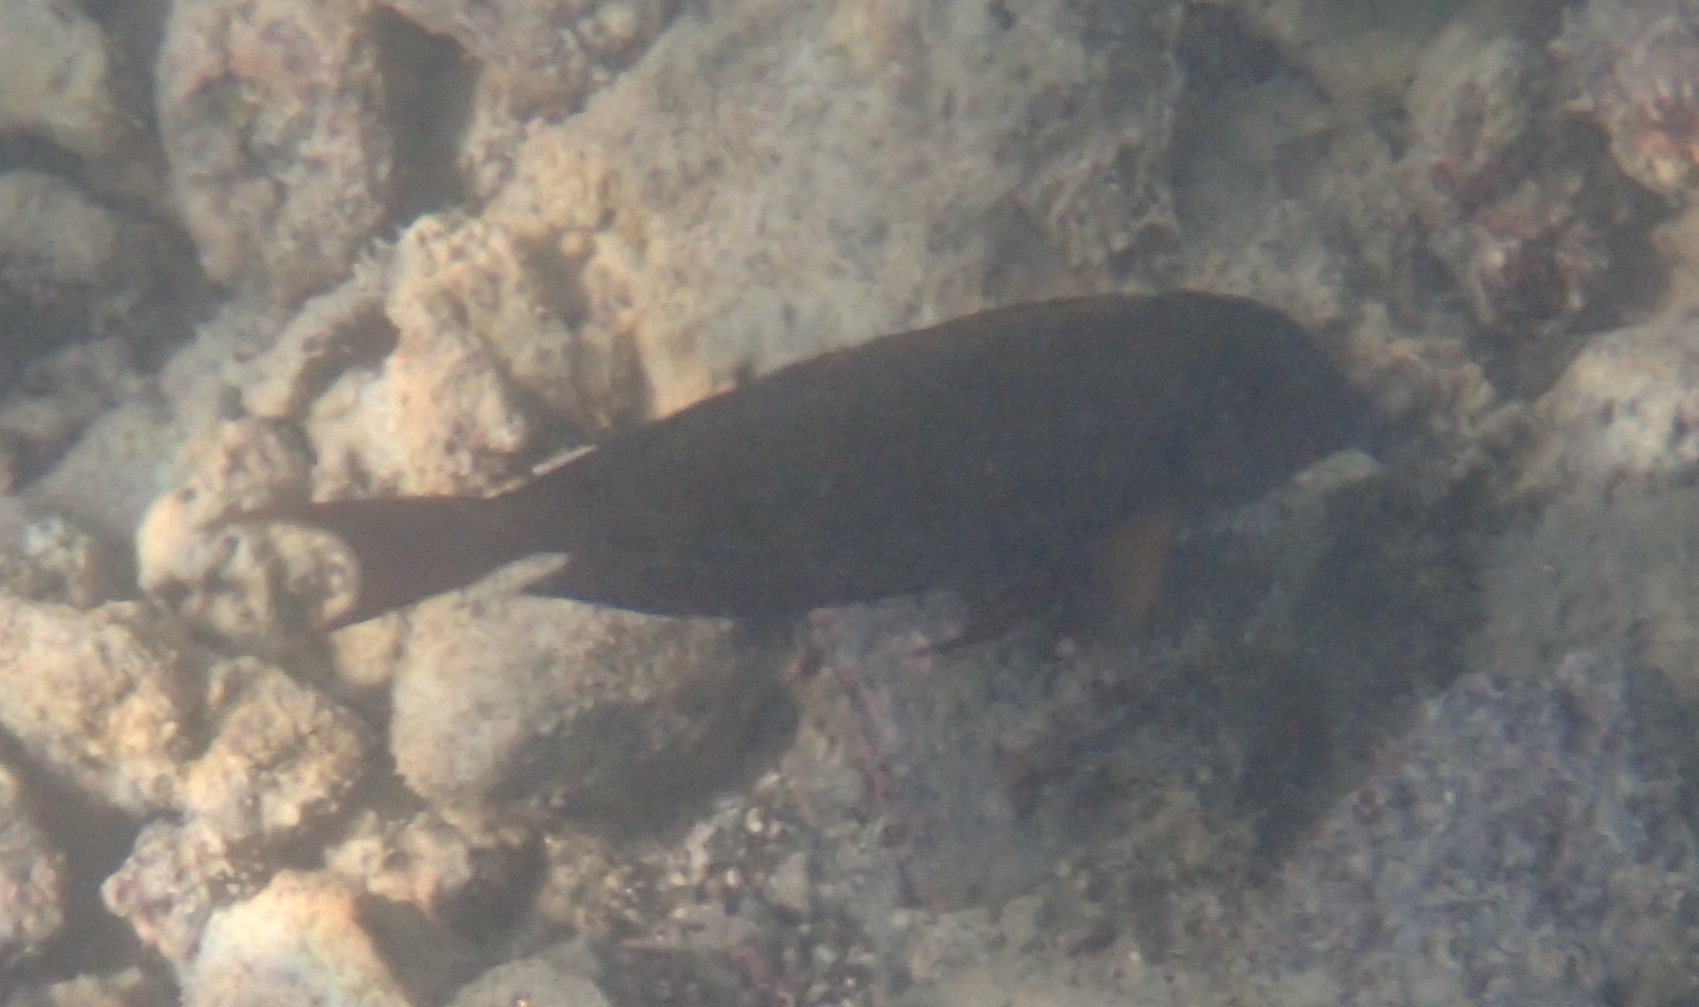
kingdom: Animalia
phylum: Chordata
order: Perciformes
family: Acanthuridae
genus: Acanthurus
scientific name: Acanthurus nigrofuscus
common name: Blackspot surgeonfish
